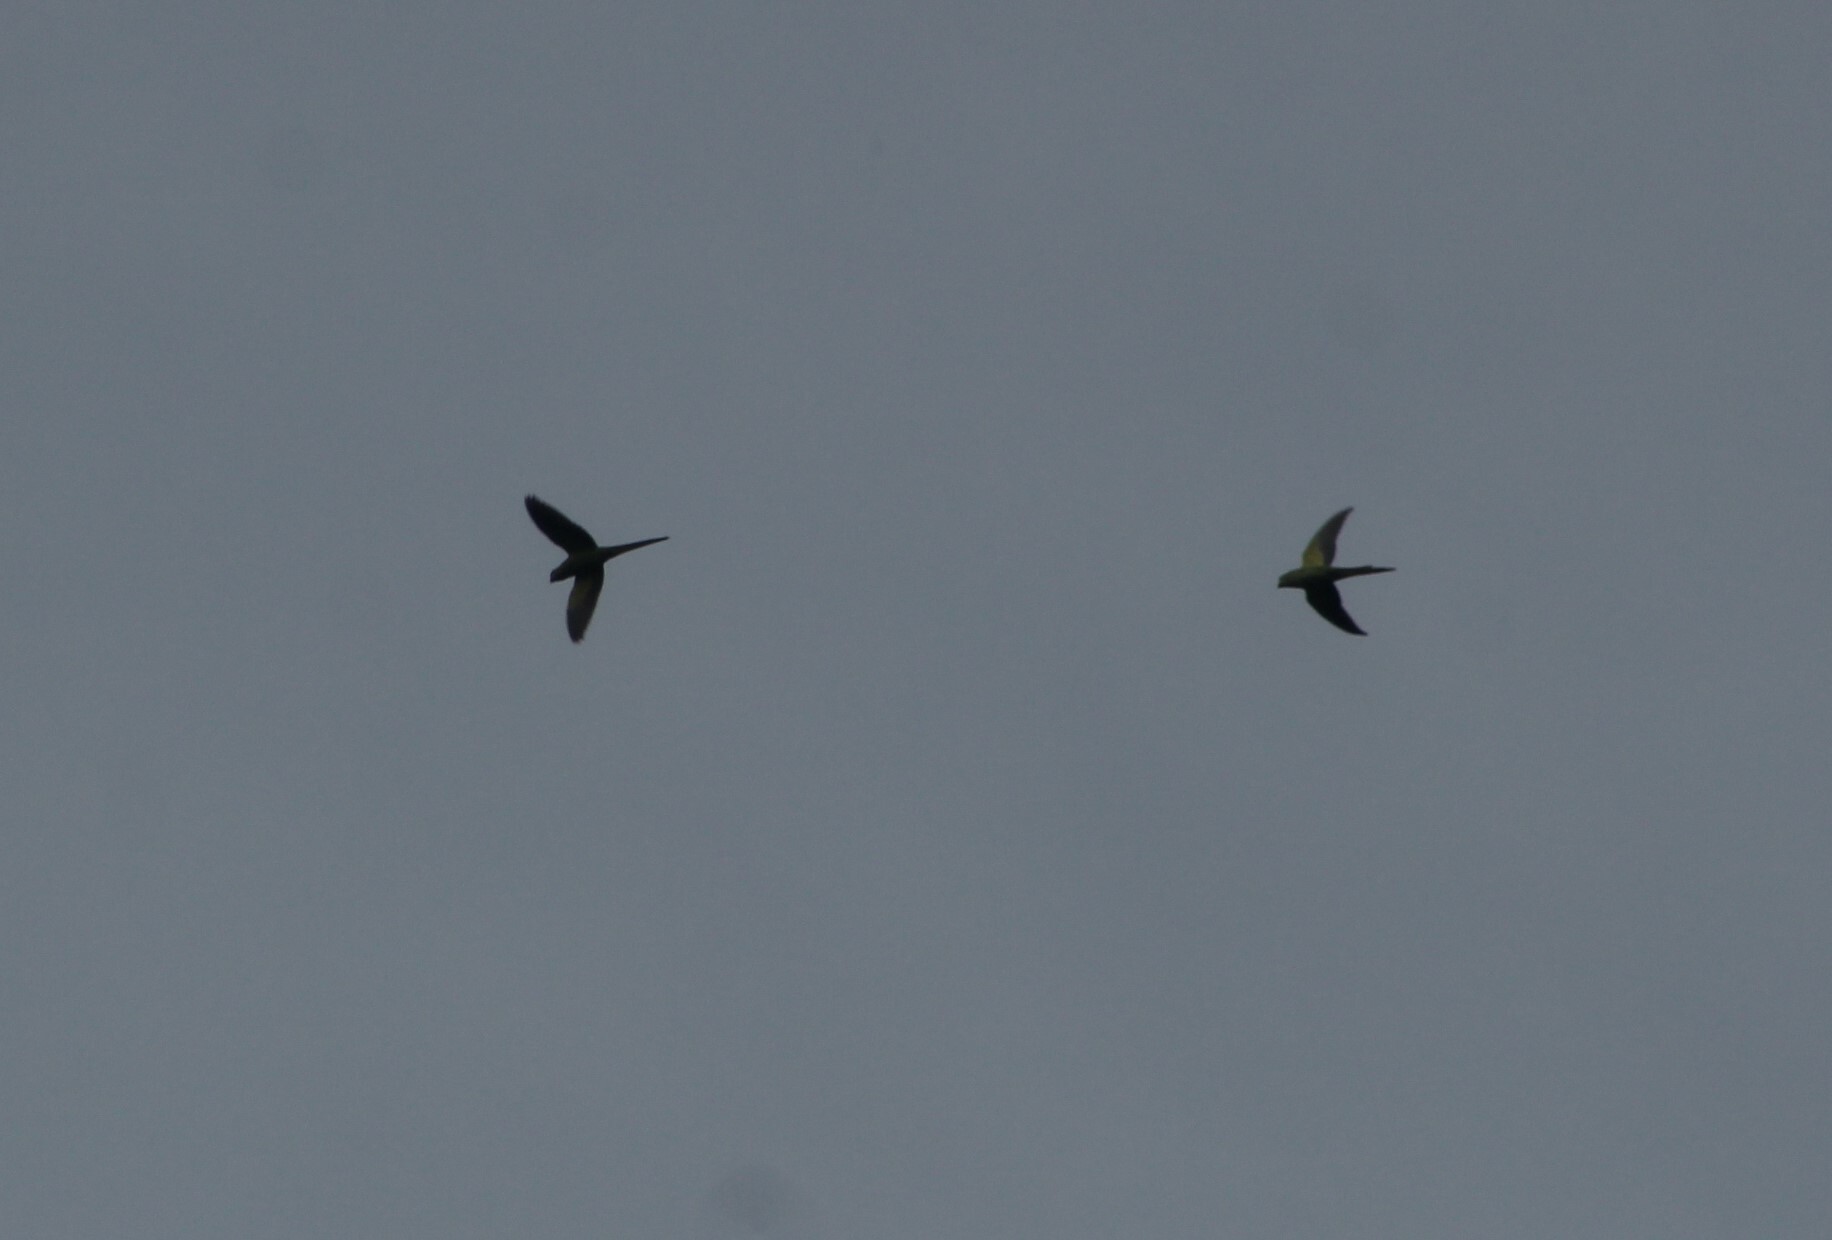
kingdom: Animalia
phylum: Chordata
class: Aves
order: Psittaciformes
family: Psittacidae
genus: Psittacula
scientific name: Psittacula krameri
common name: Rose-ringed parakeet
